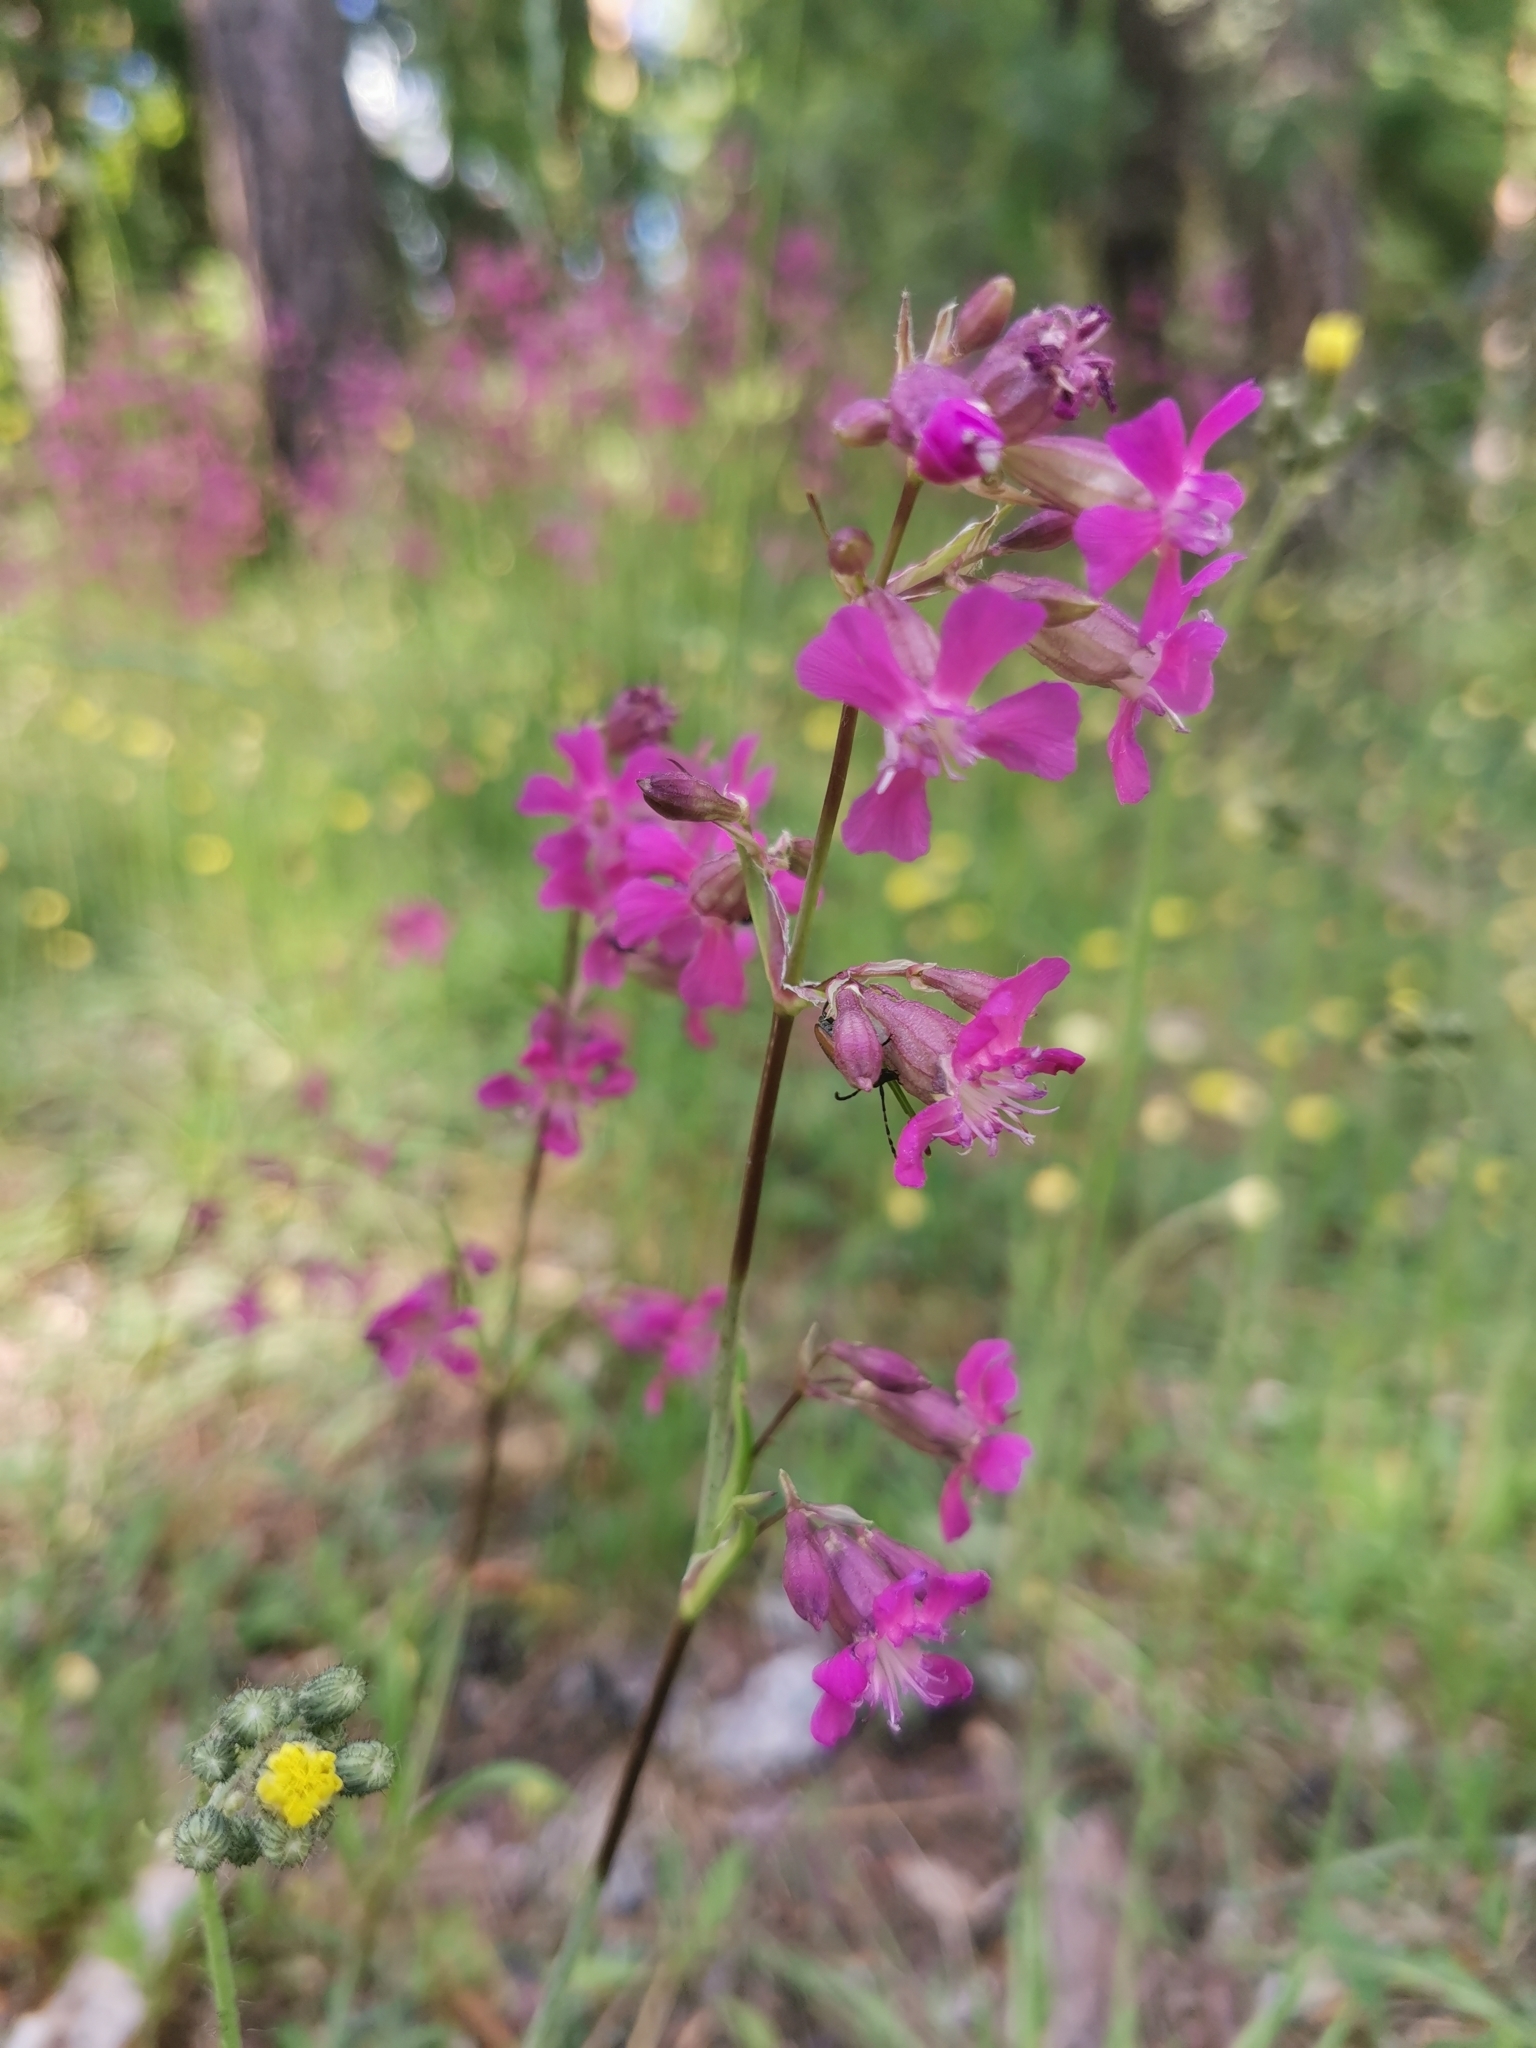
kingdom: Plantae
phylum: Tracheophyta
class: Magnoliopsida
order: Caryophyllales
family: Caryophyllaceae
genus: Viscaria
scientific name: Viscaria vulgaris
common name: Clammy campion
